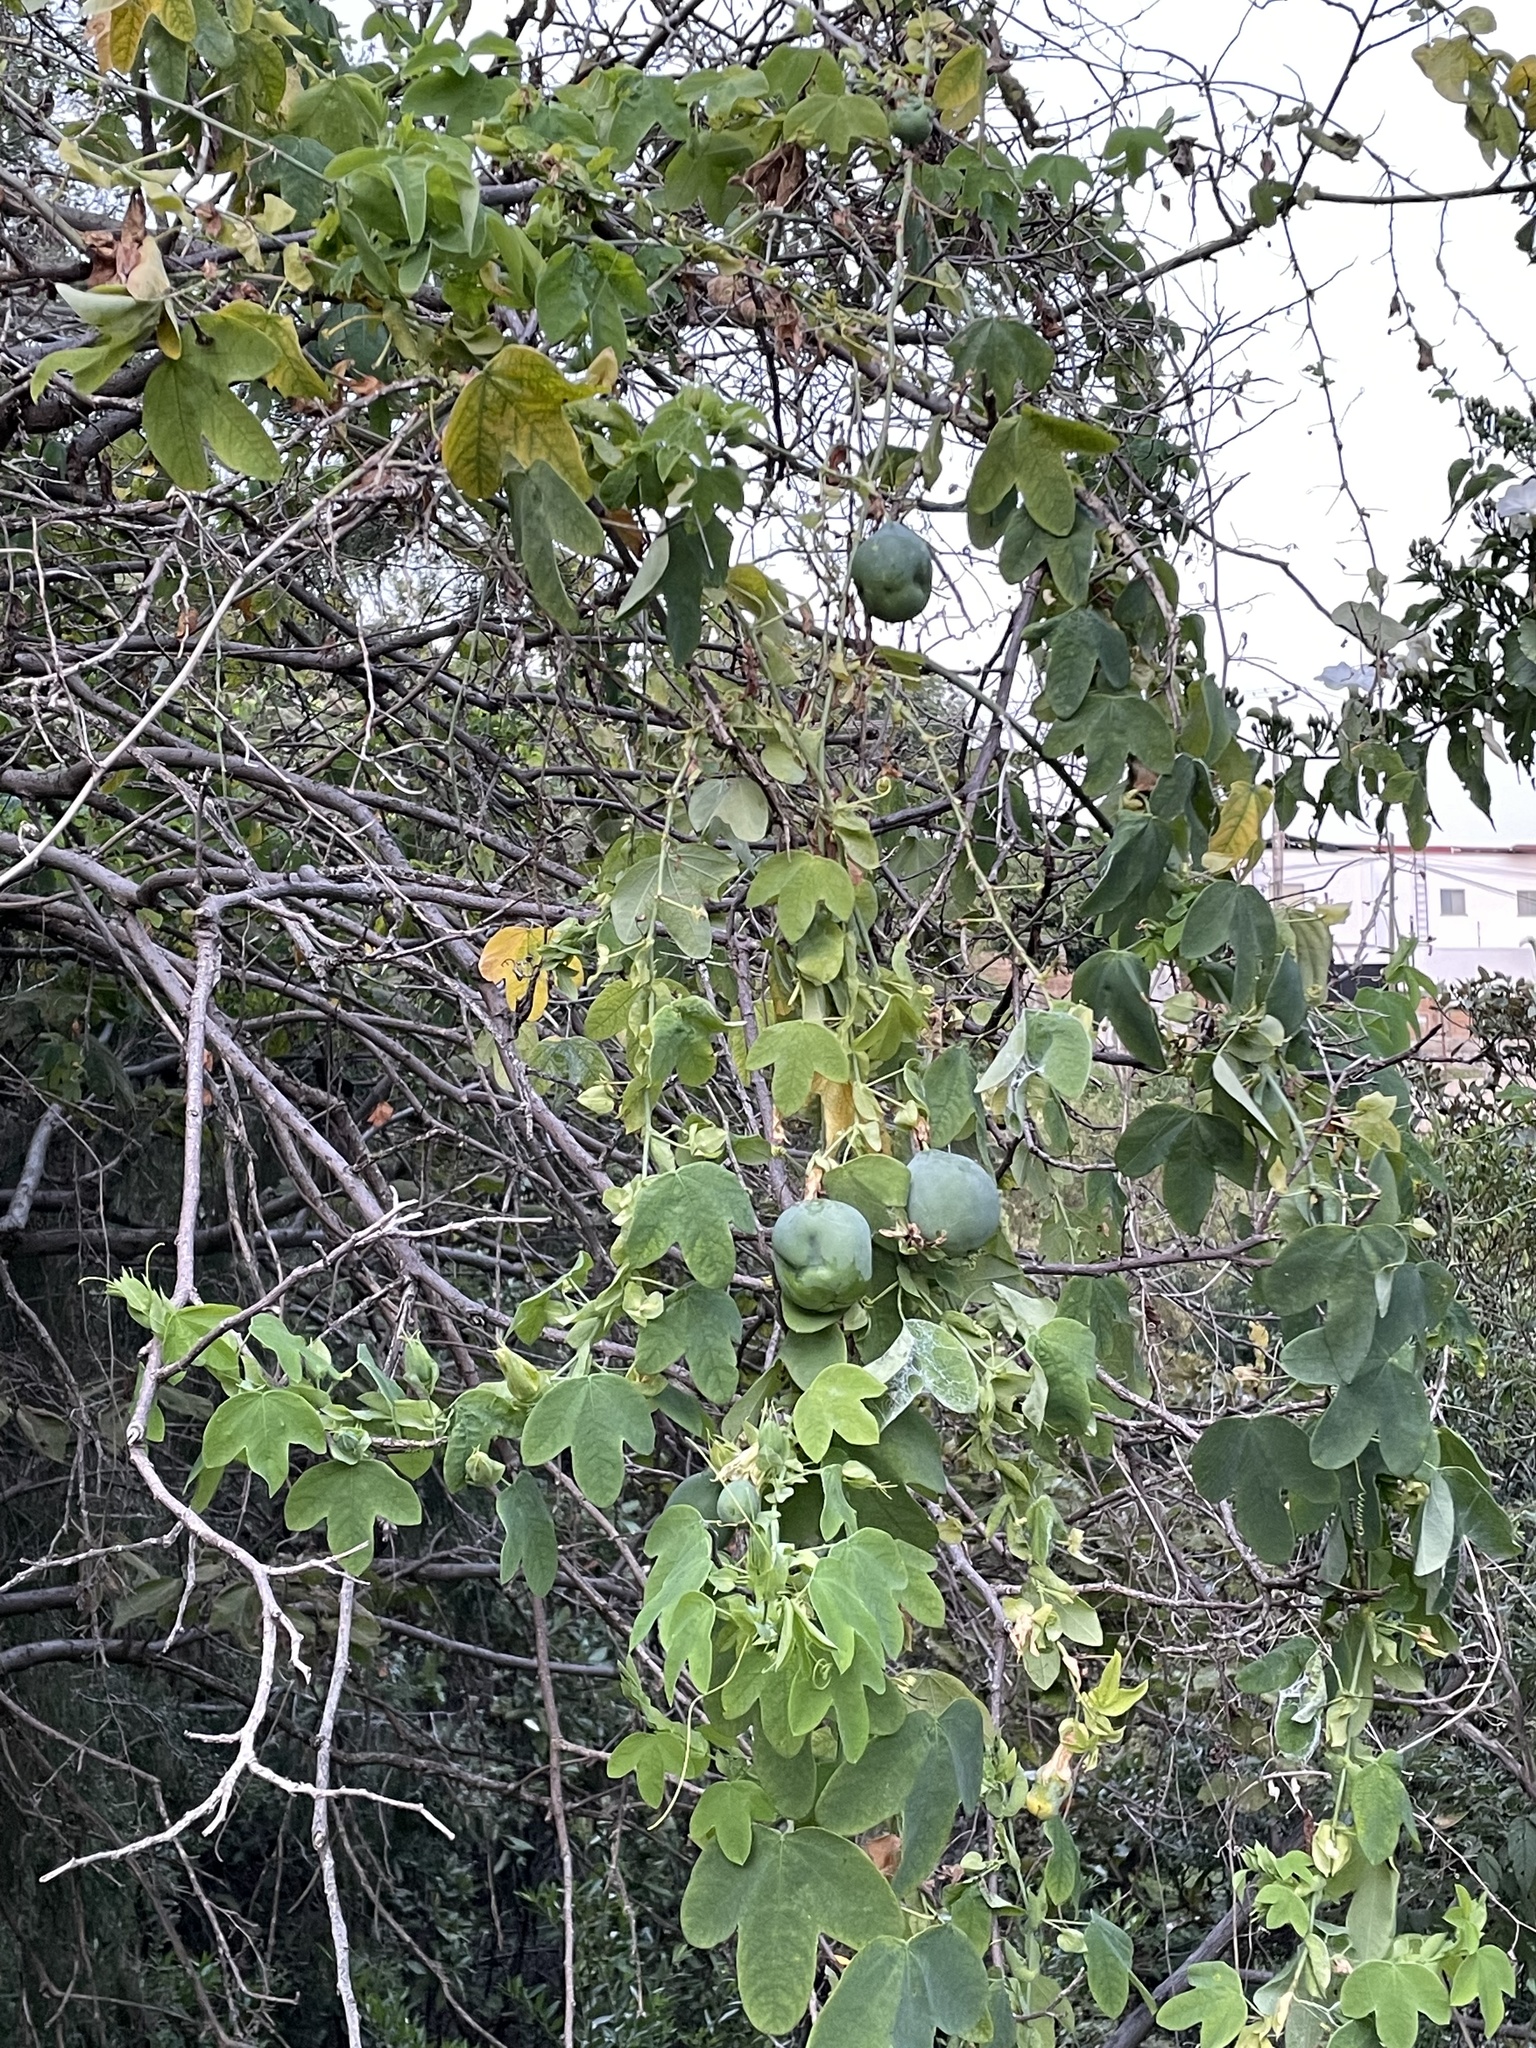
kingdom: Plantae
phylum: Tracheophyta
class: Magnoliopsida
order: Malpighiales
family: Passifloraceae
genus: Passiflora
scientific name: Passiflora subpeltata
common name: White passionflower
